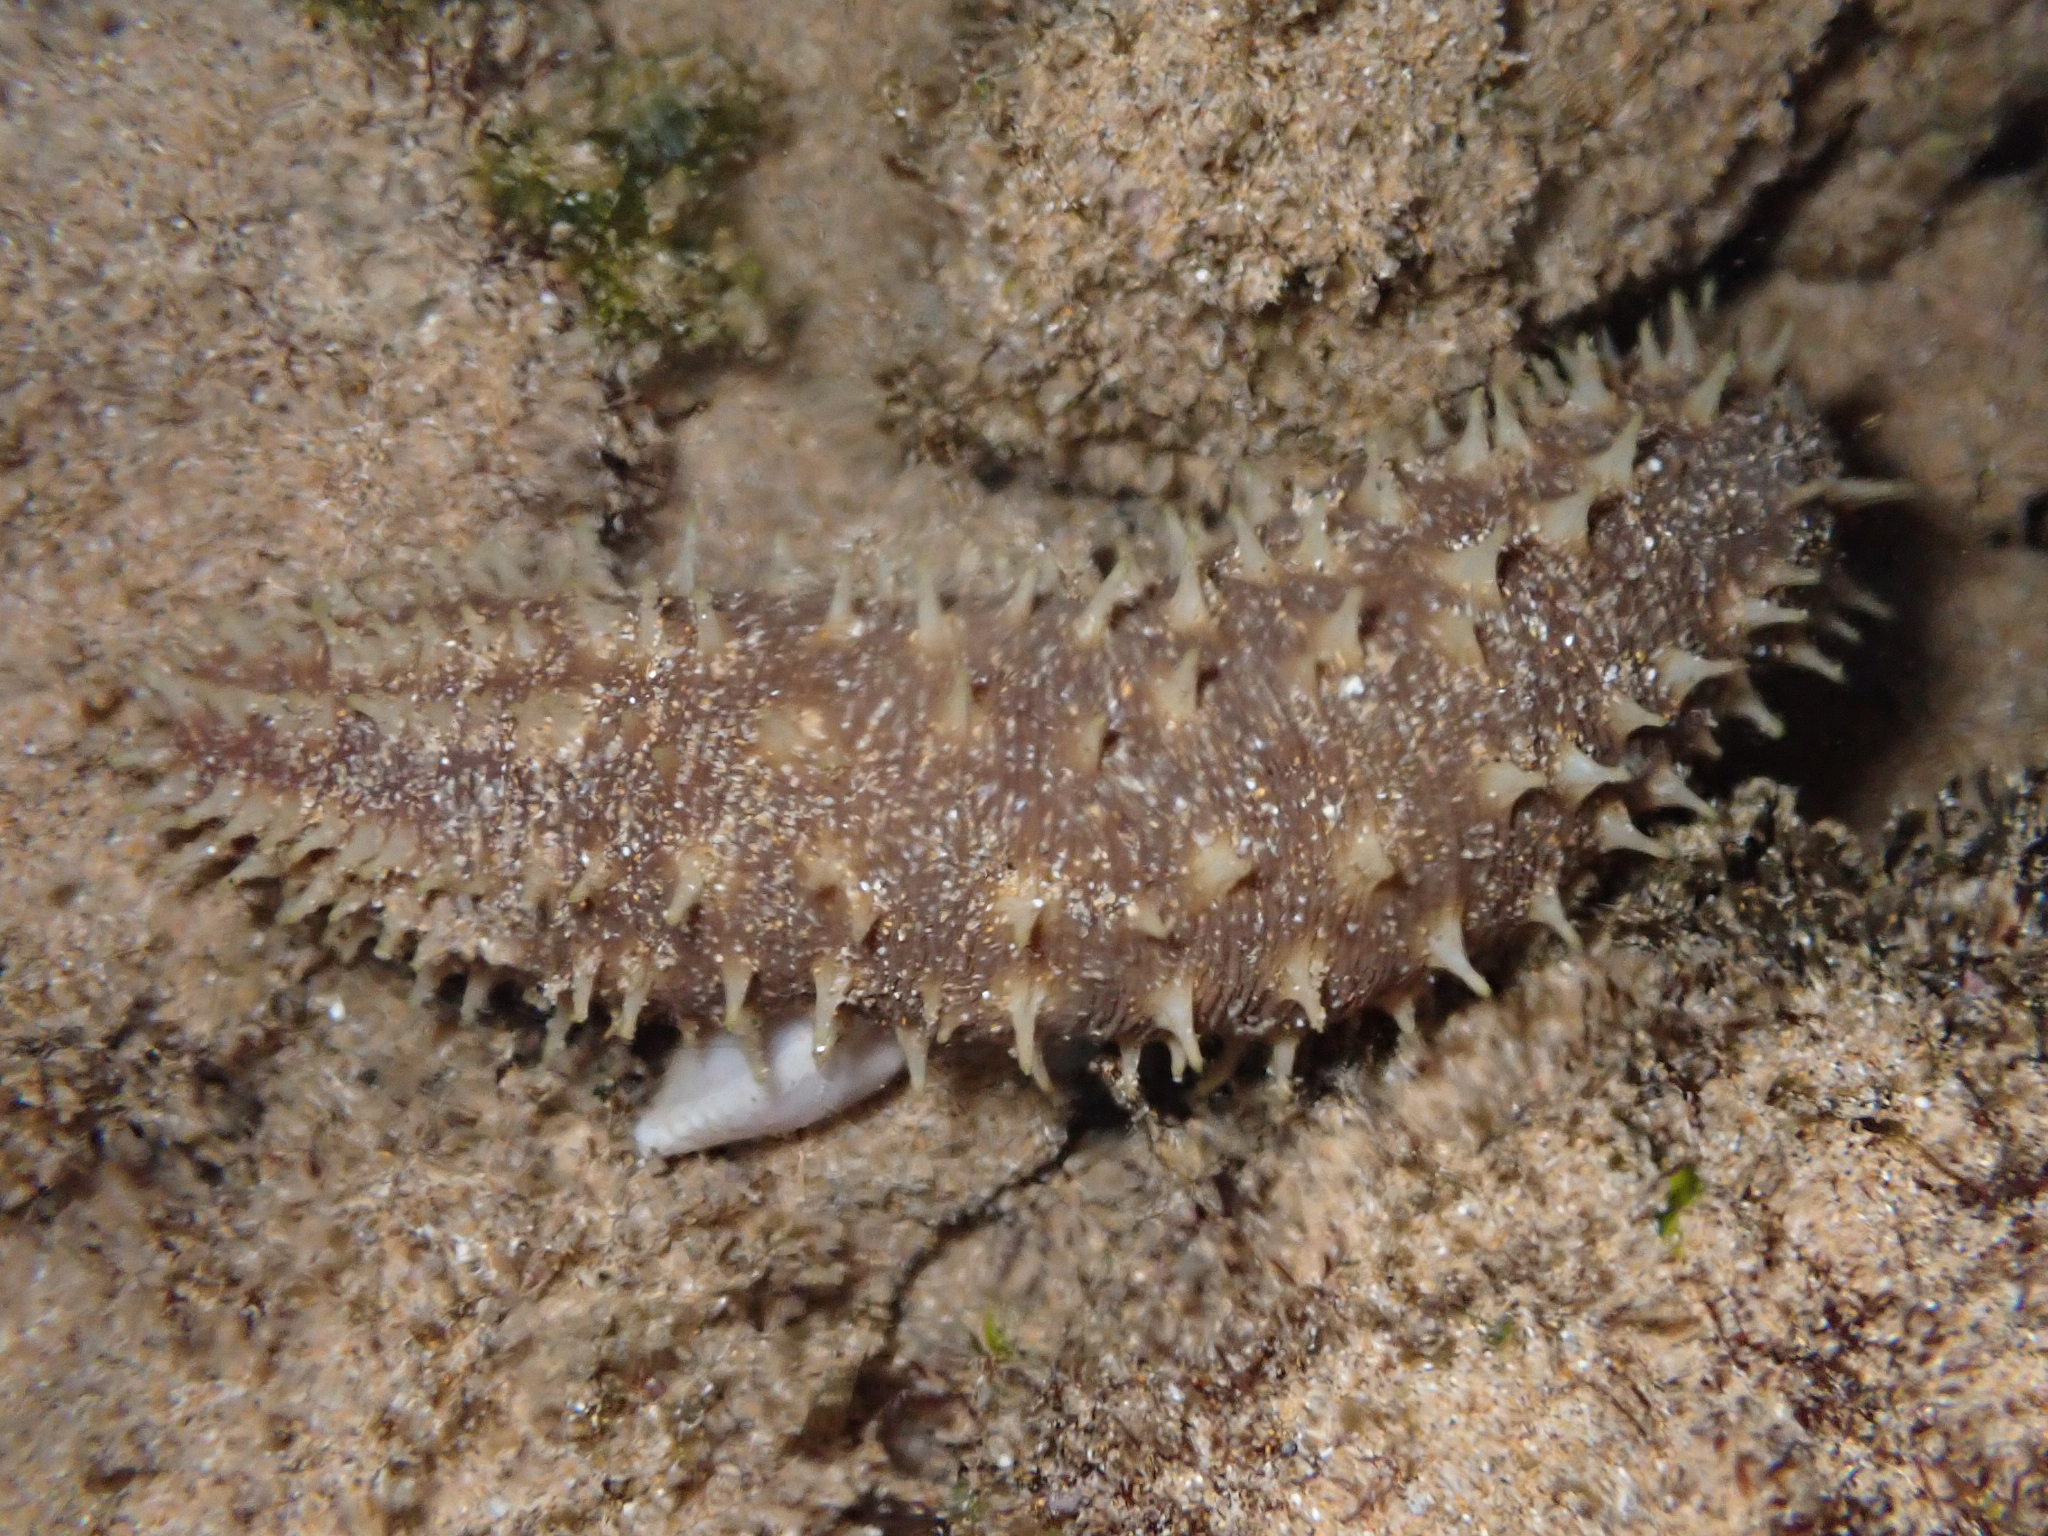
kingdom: Animalia
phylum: Echinodermata
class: Holothuroidea
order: Holothuriida
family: Holothuriidae
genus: Holothuria
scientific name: Holothuria hilla
